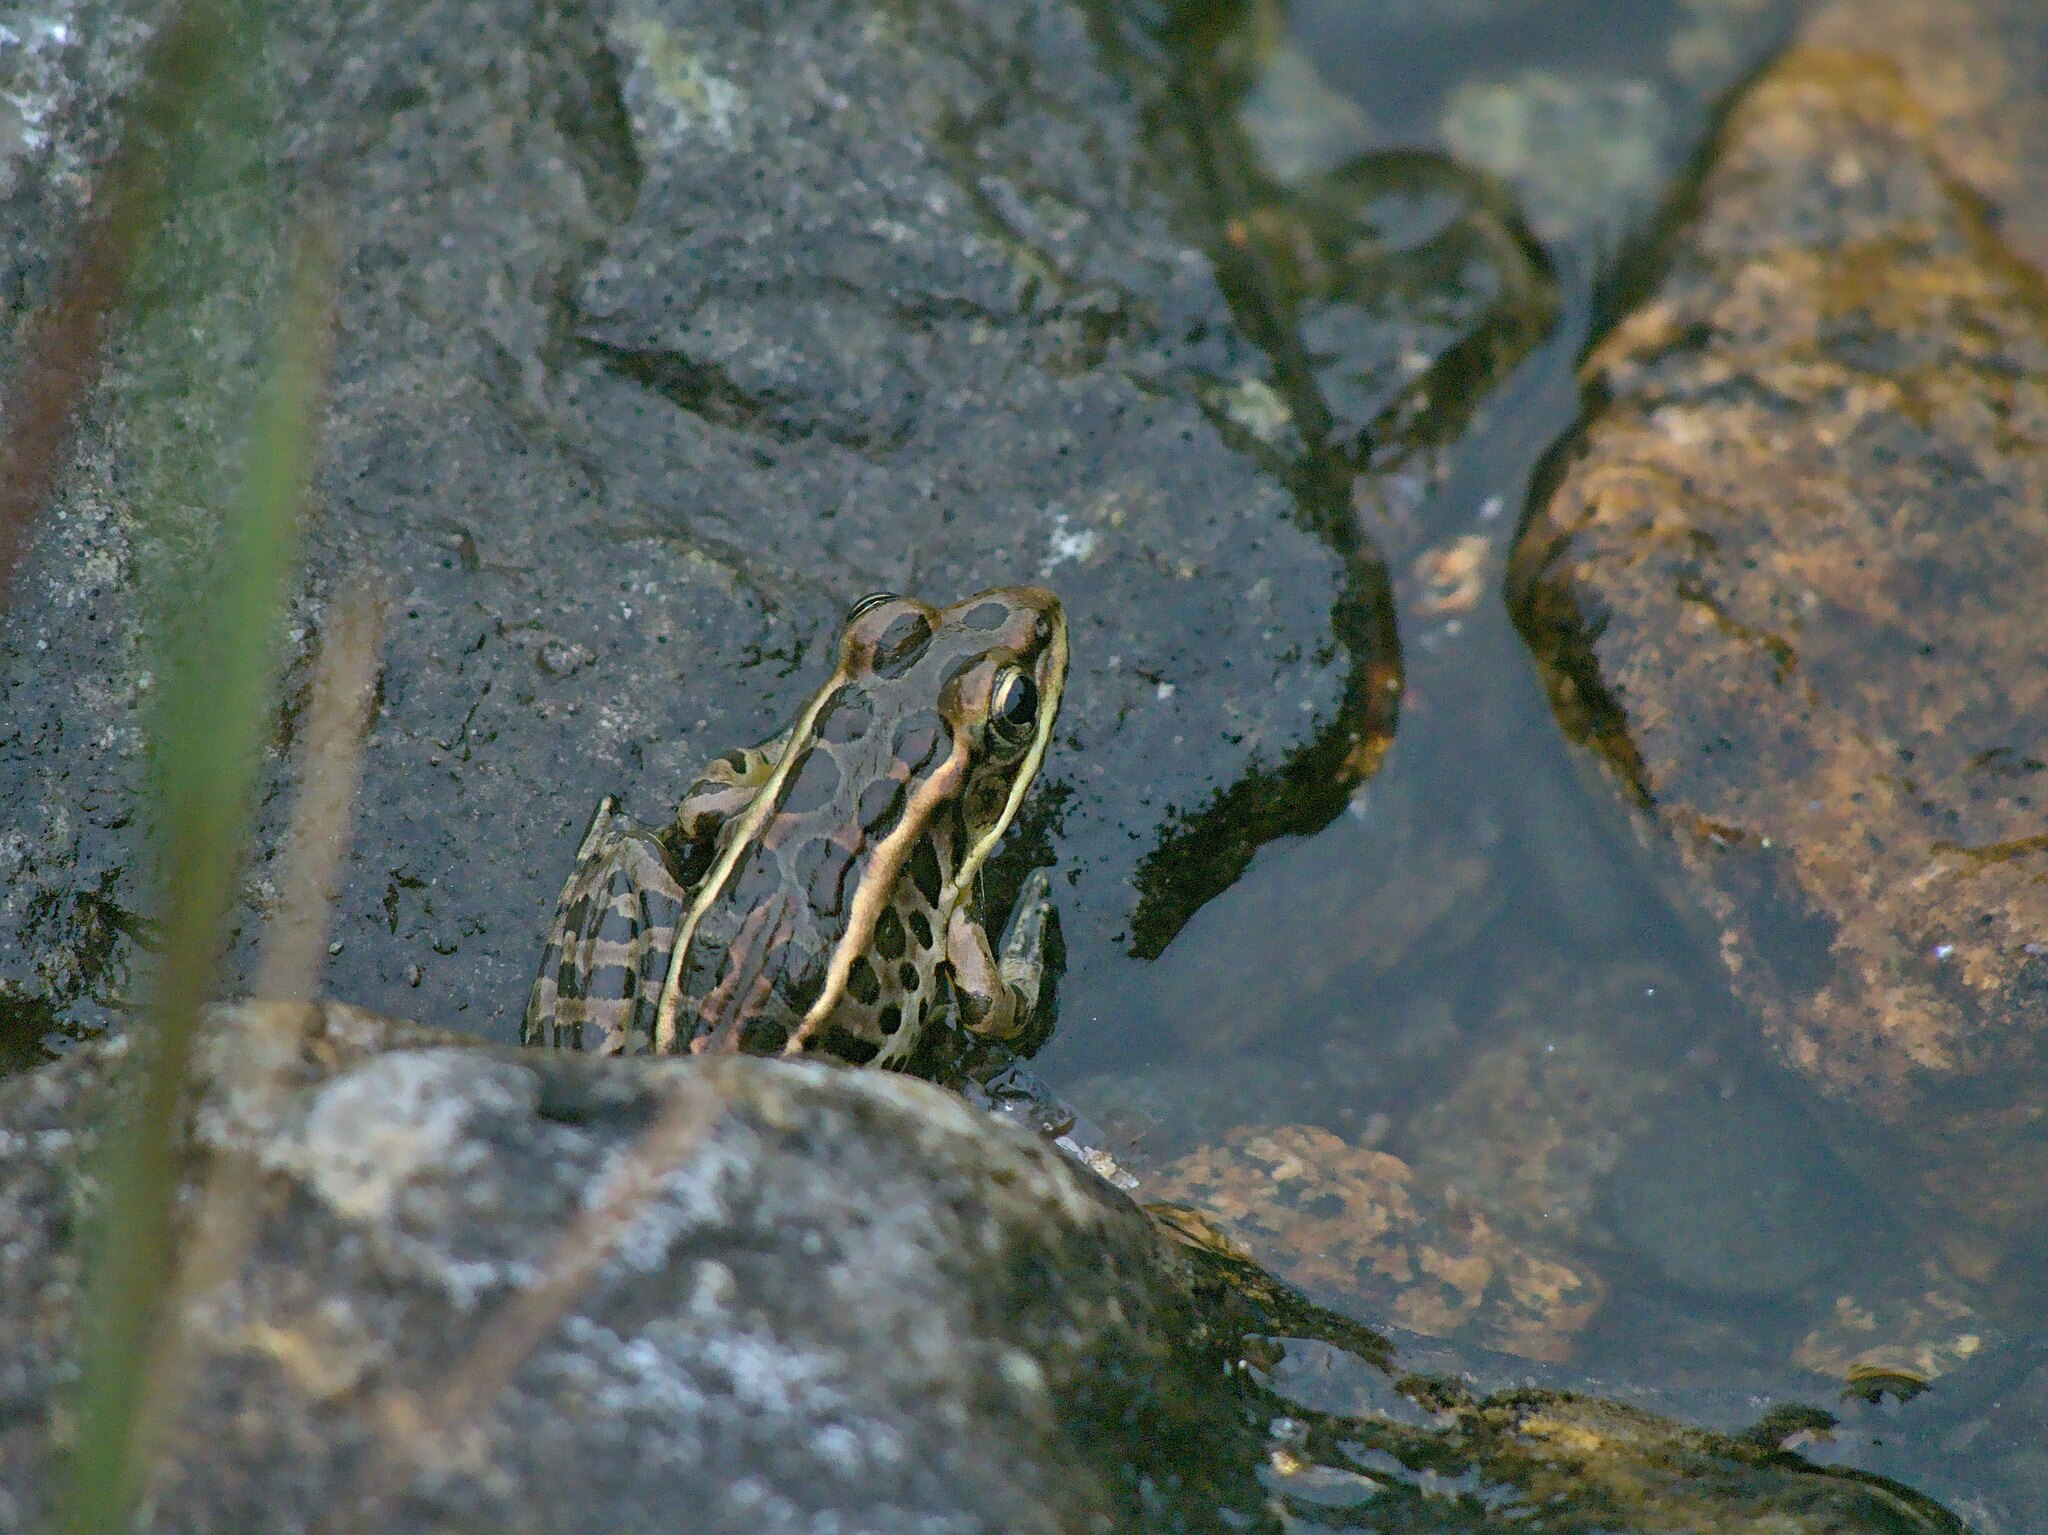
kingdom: Animalia
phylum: Chordata
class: Amphibia
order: Anura
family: Ranidae
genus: Lithobates
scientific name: Lithobates pipiens
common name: Northern leopard frog
